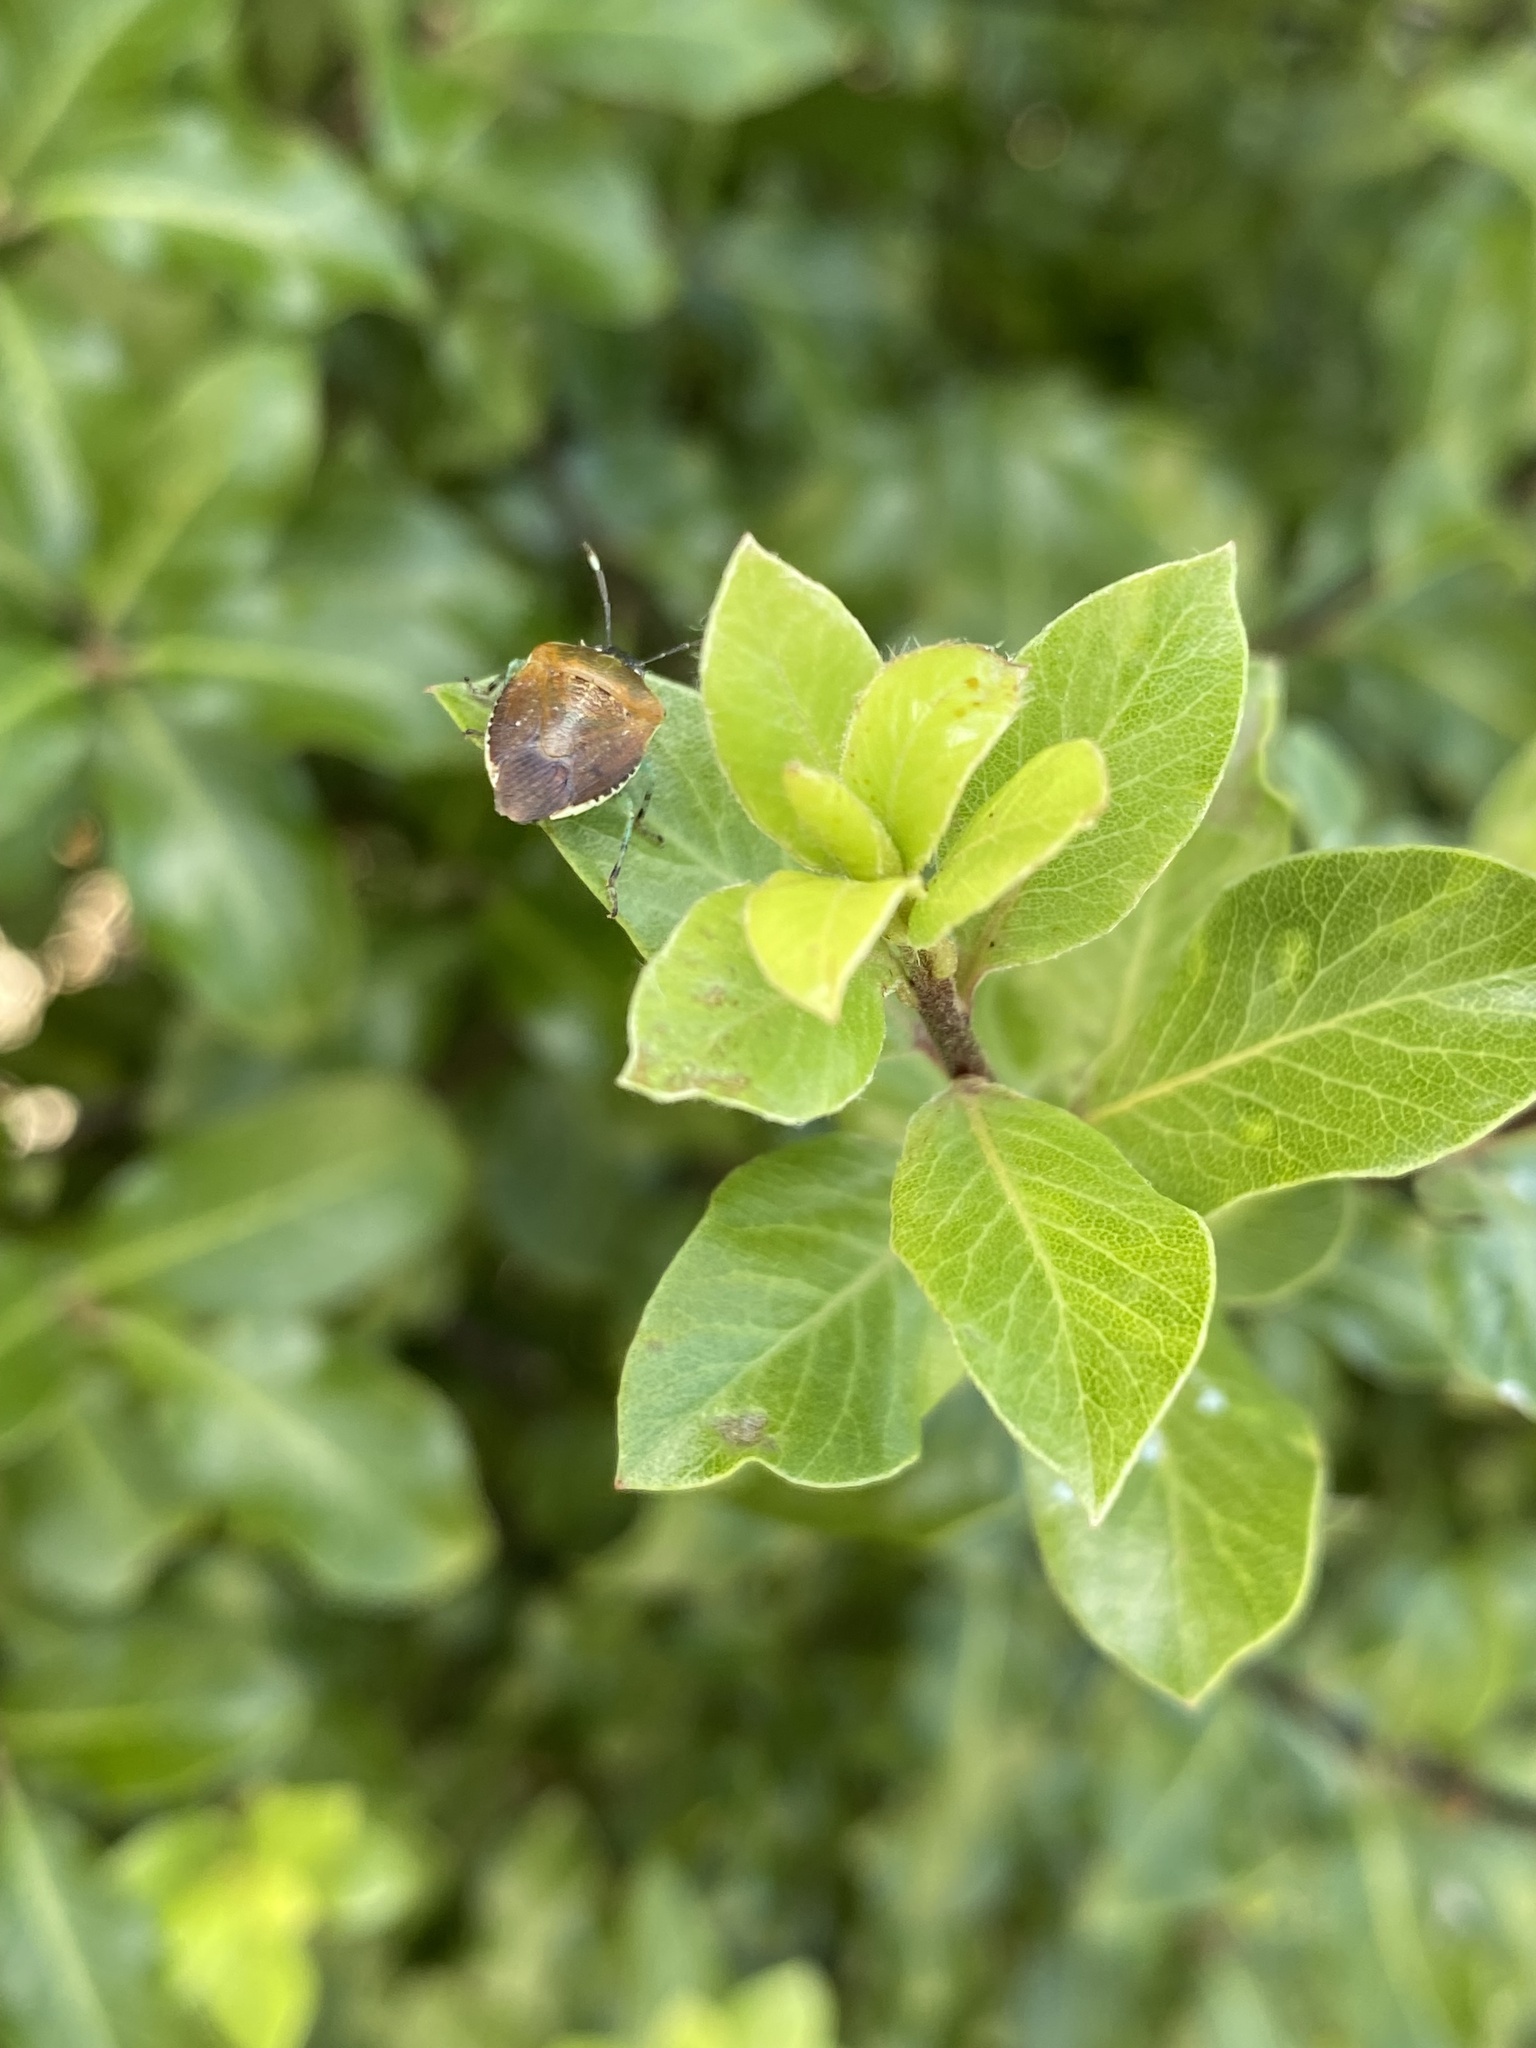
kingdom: Animalia
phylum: Arthropoda
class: Insecta
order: Hemiptera
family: Pentatomidae
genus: Monteithiella
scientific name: Monteithiella
